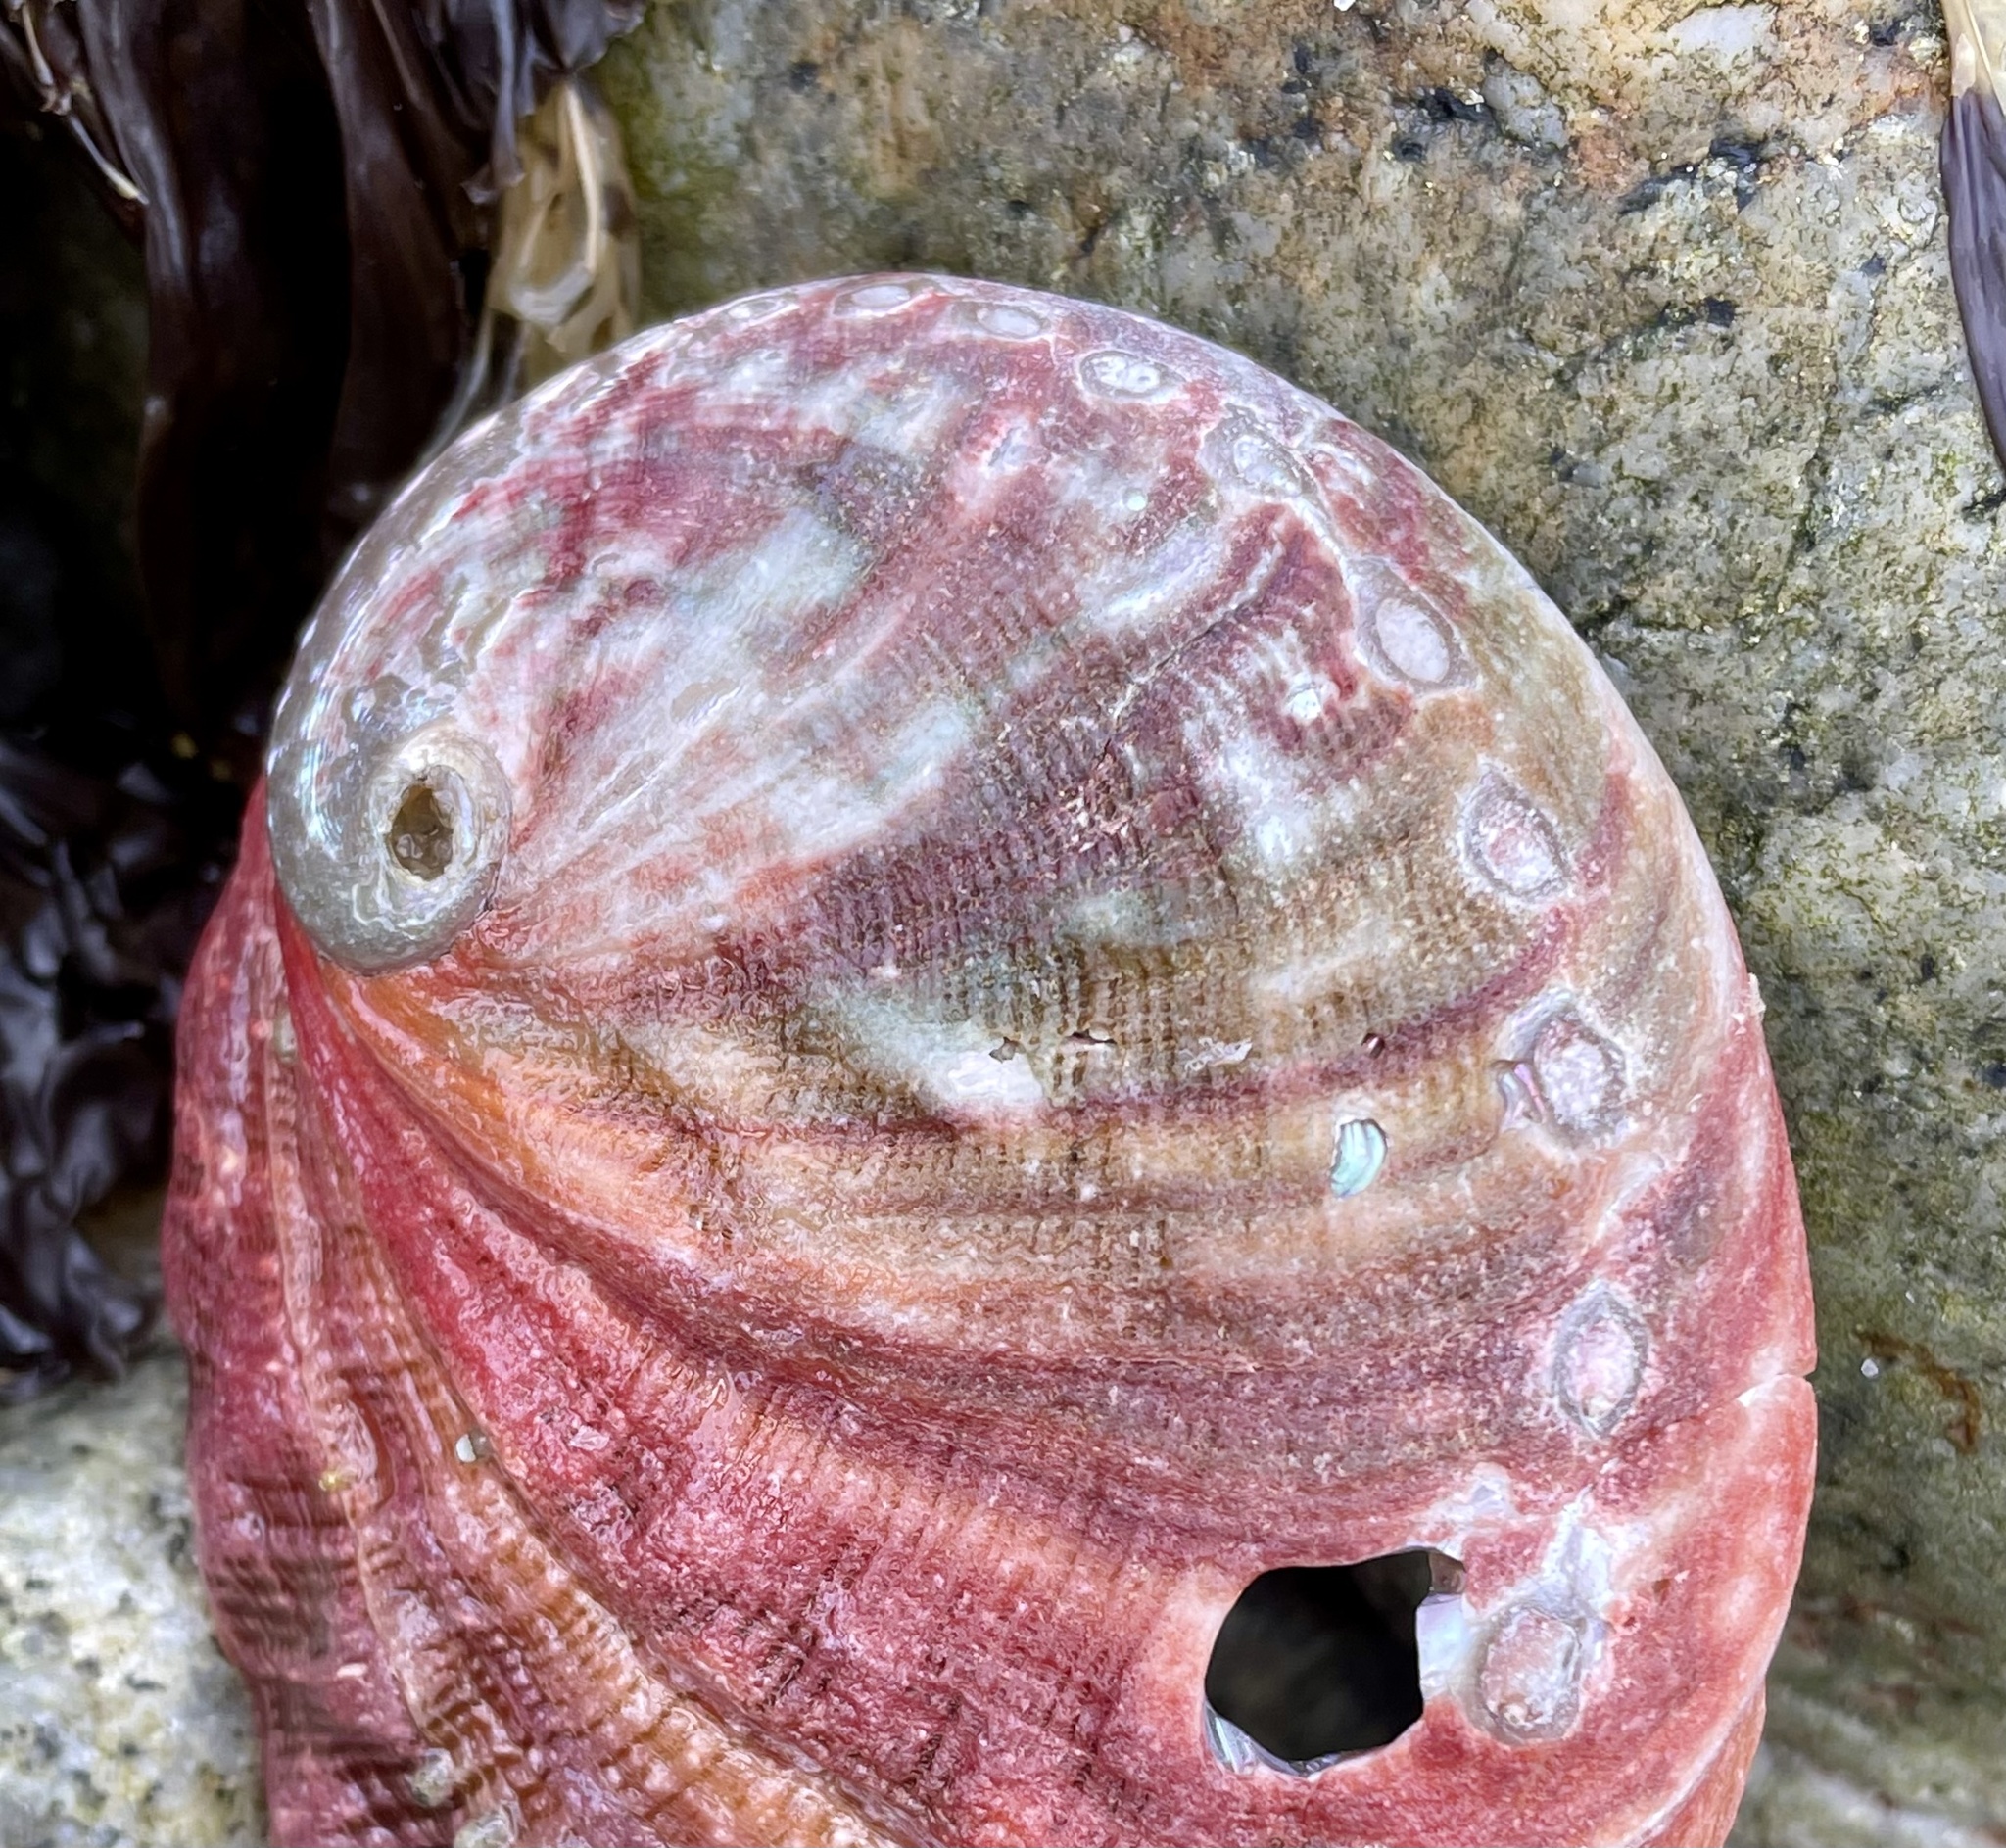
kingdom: Animalia
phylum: Mollusca
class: Gastropoda
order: Lepetellida
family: Haliotidae
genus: Haliotis
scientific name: Haliotis rufescens
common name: Red abalone
